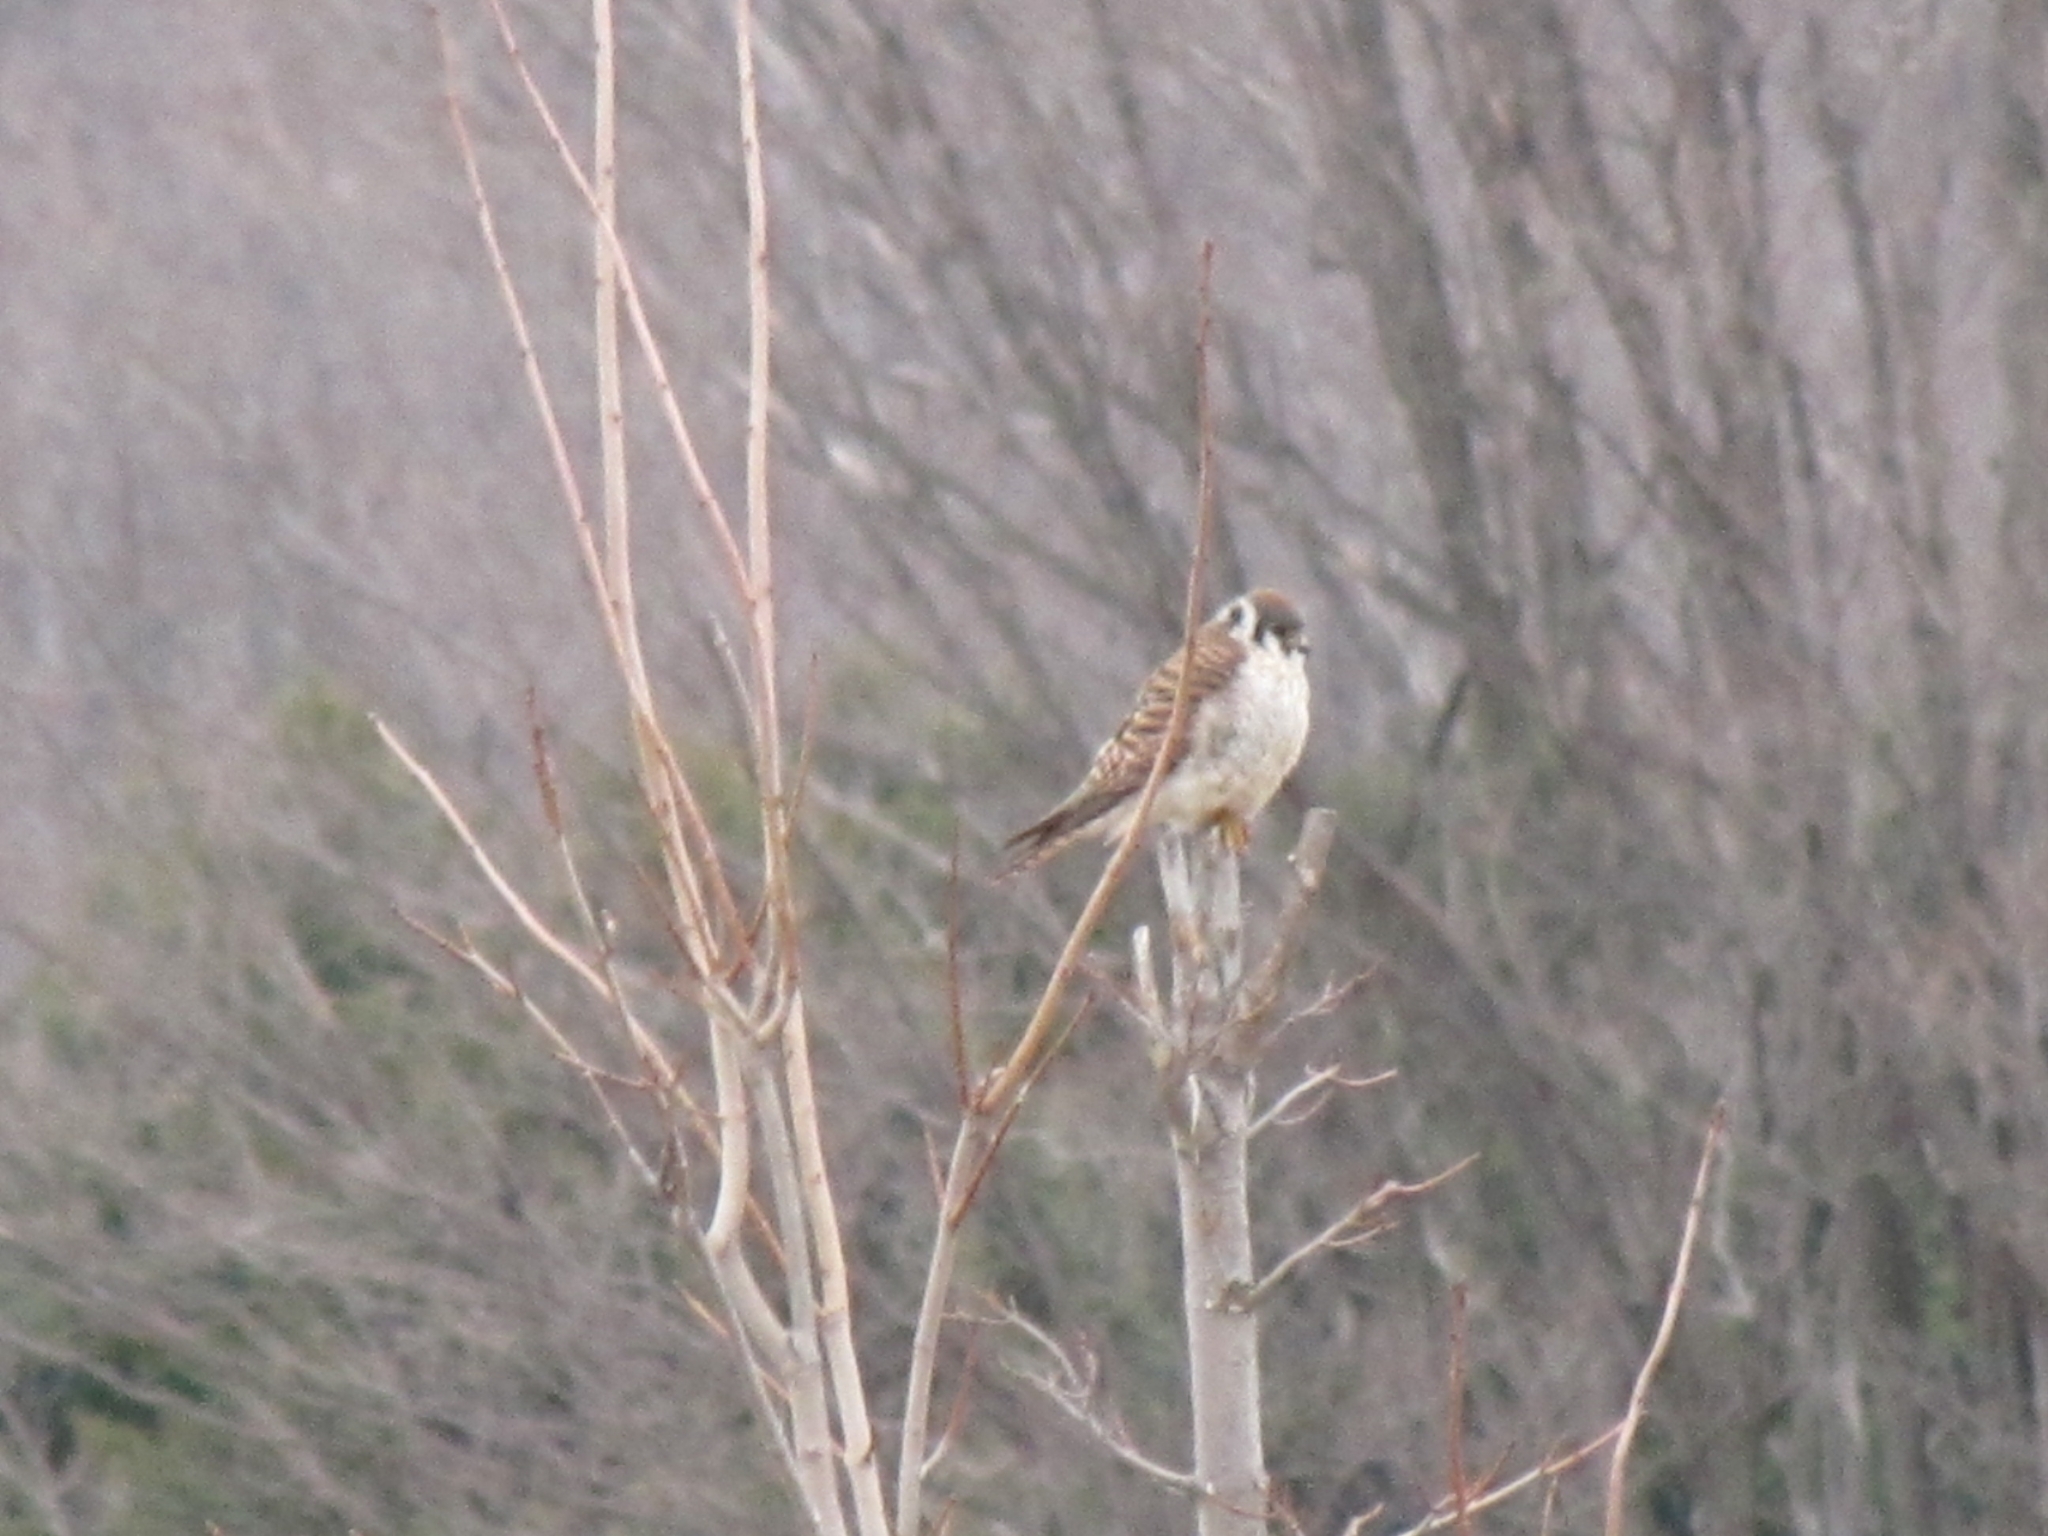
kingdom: Animalia
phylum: Chordata
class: Aves
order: Falconiformes
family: Falconidae
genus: Falco
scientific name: Falco sparverius
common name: American kestrel
